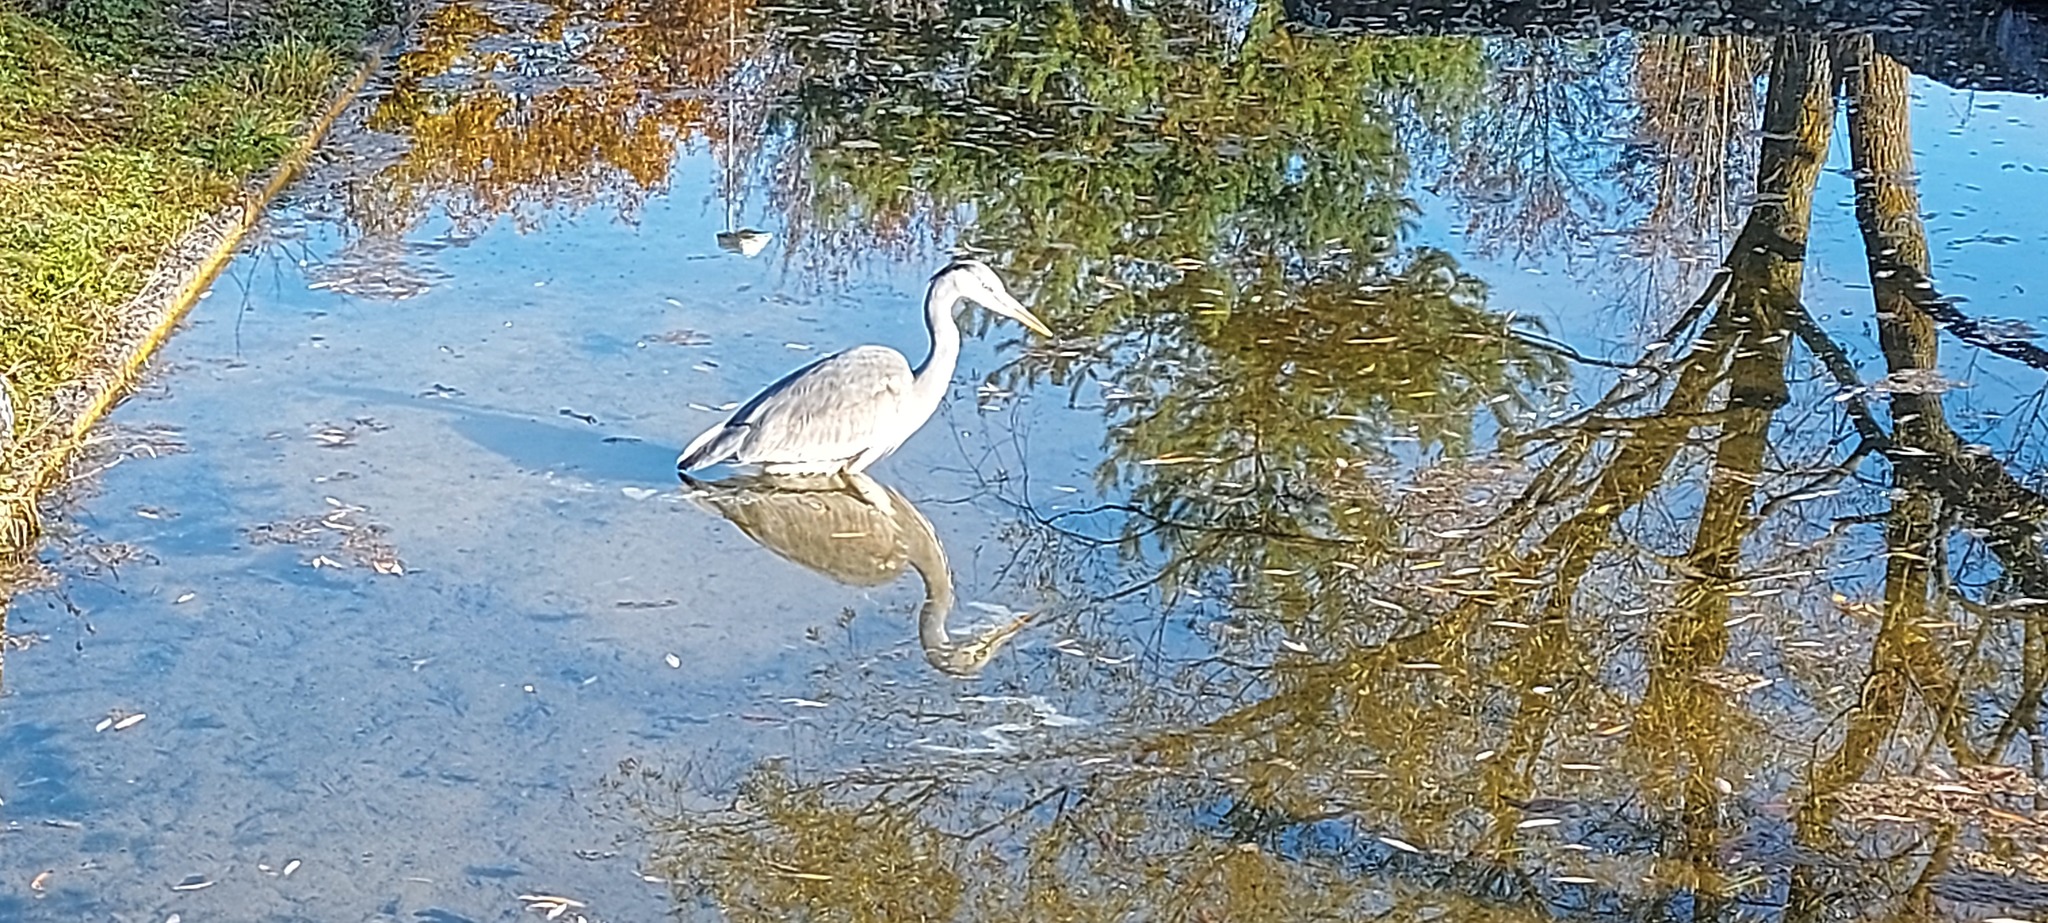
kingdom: Animalia
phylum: Chordata
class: Aves
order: Pelecaniformes
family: Ardeidae
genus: Ardea
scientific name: Ardea cinerea
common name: Grey heron
